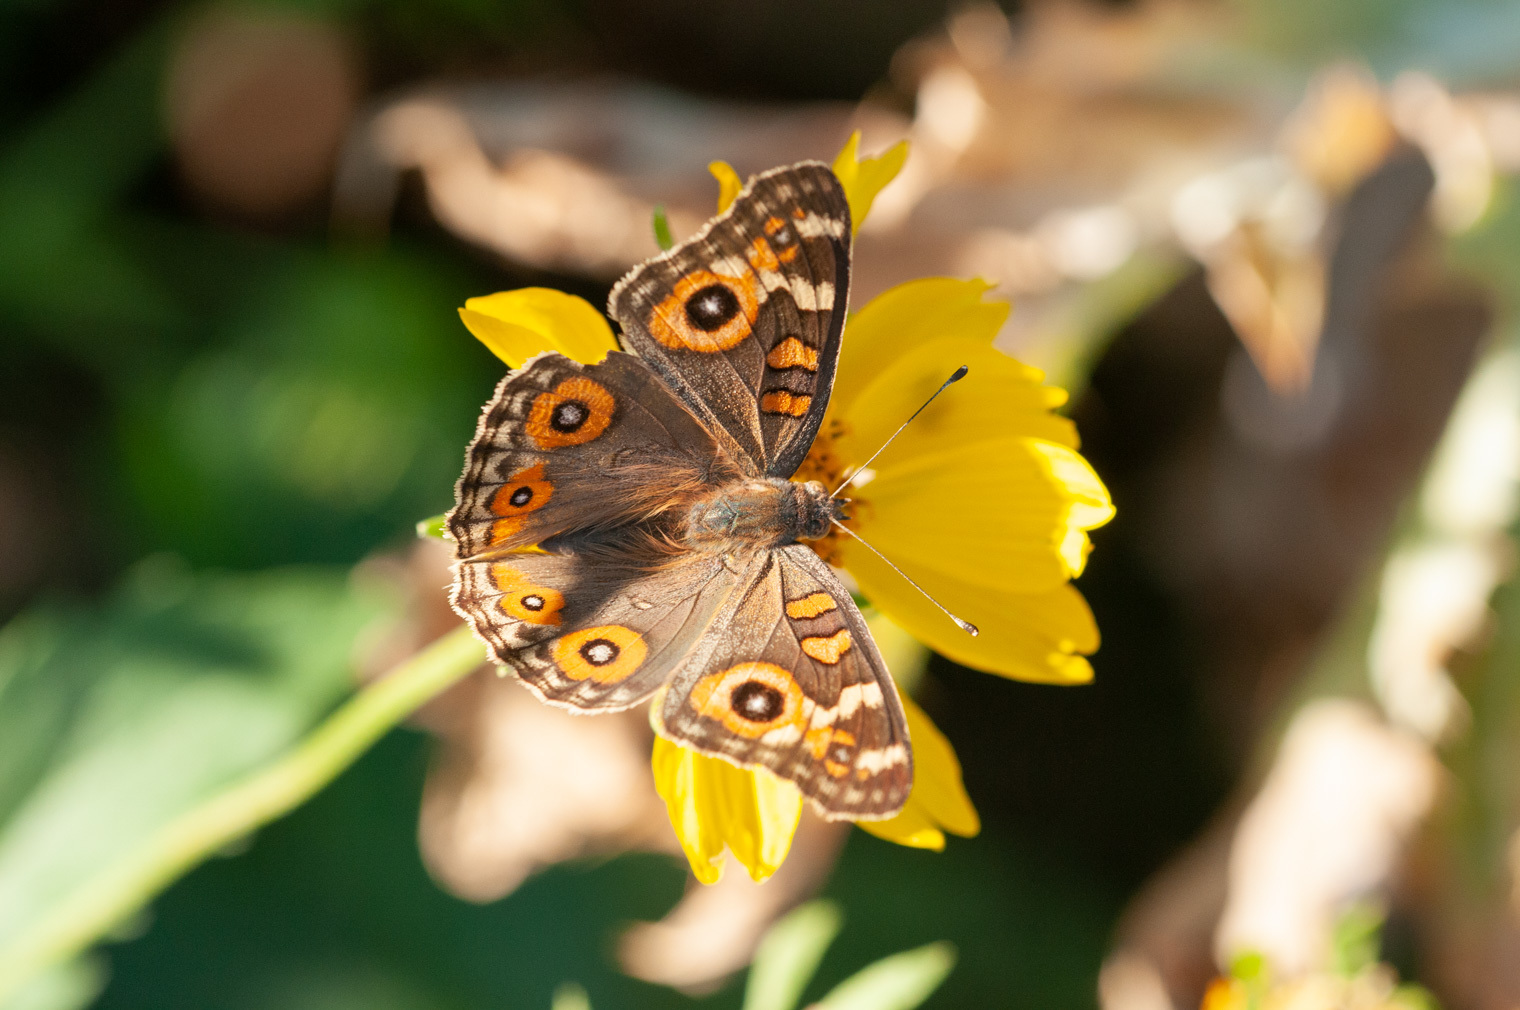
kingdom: Animalia
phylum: Arthropoda
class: Insecta
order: Lepidoptera
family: Nymphalidae
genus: Junonia
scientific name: Junonia villida
